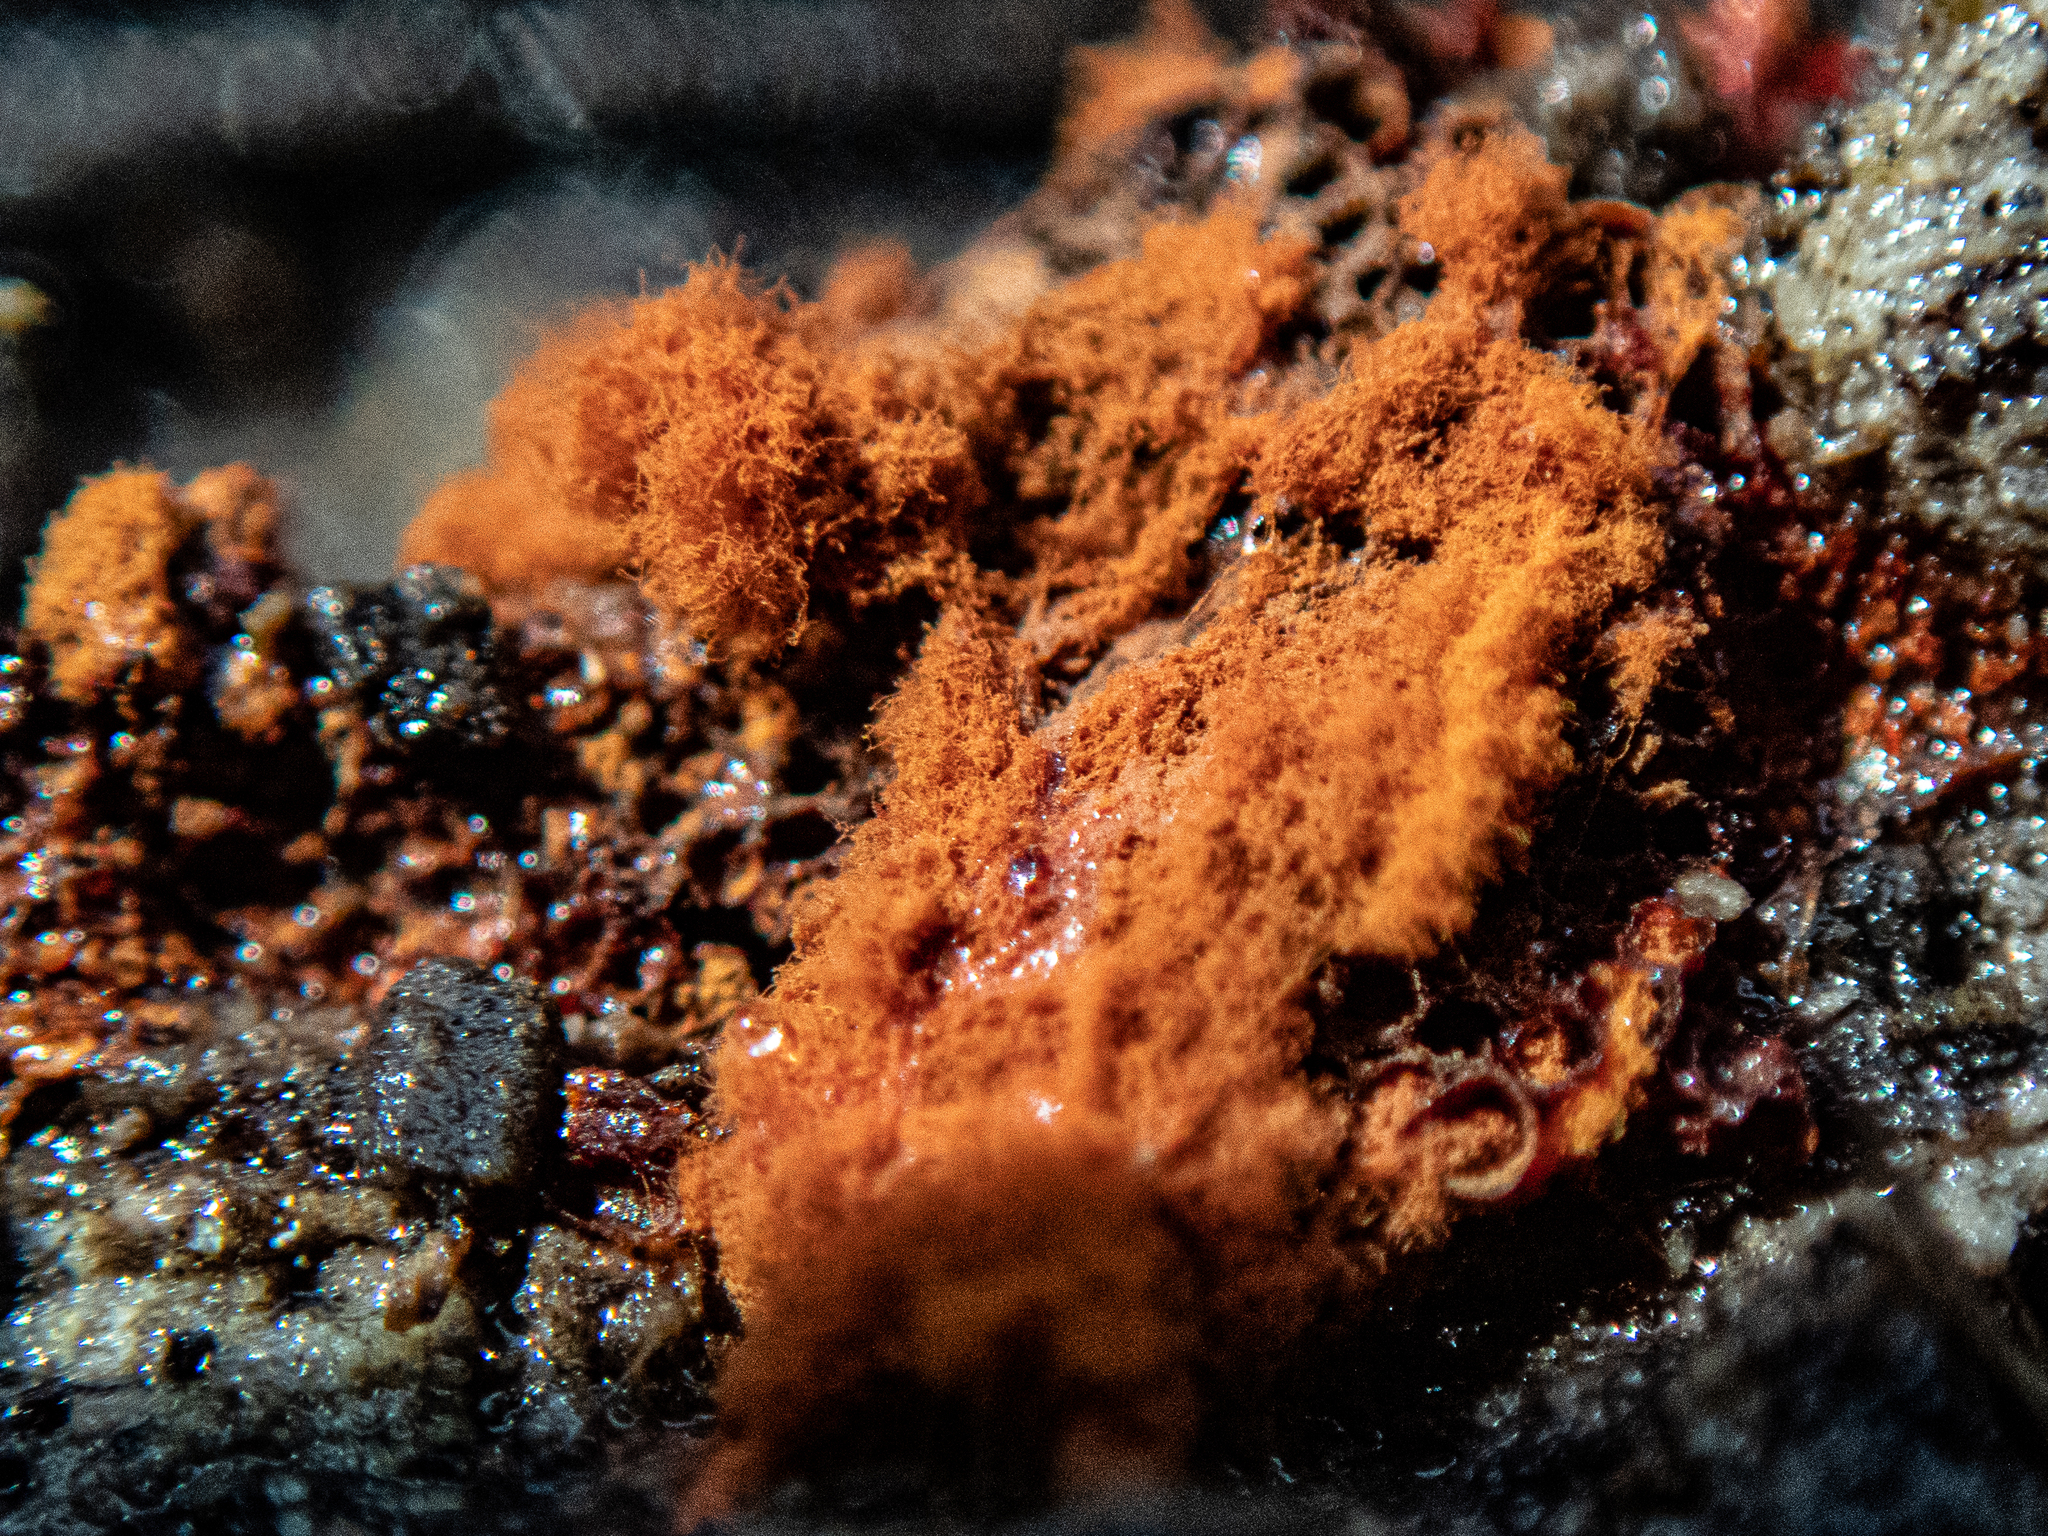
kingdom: Protozoa
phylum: Mycetozoa
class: Myxomycetes
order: Trichiales
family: Trichiaceae
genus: Metatrichia
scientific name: Metatrichia vesparia
